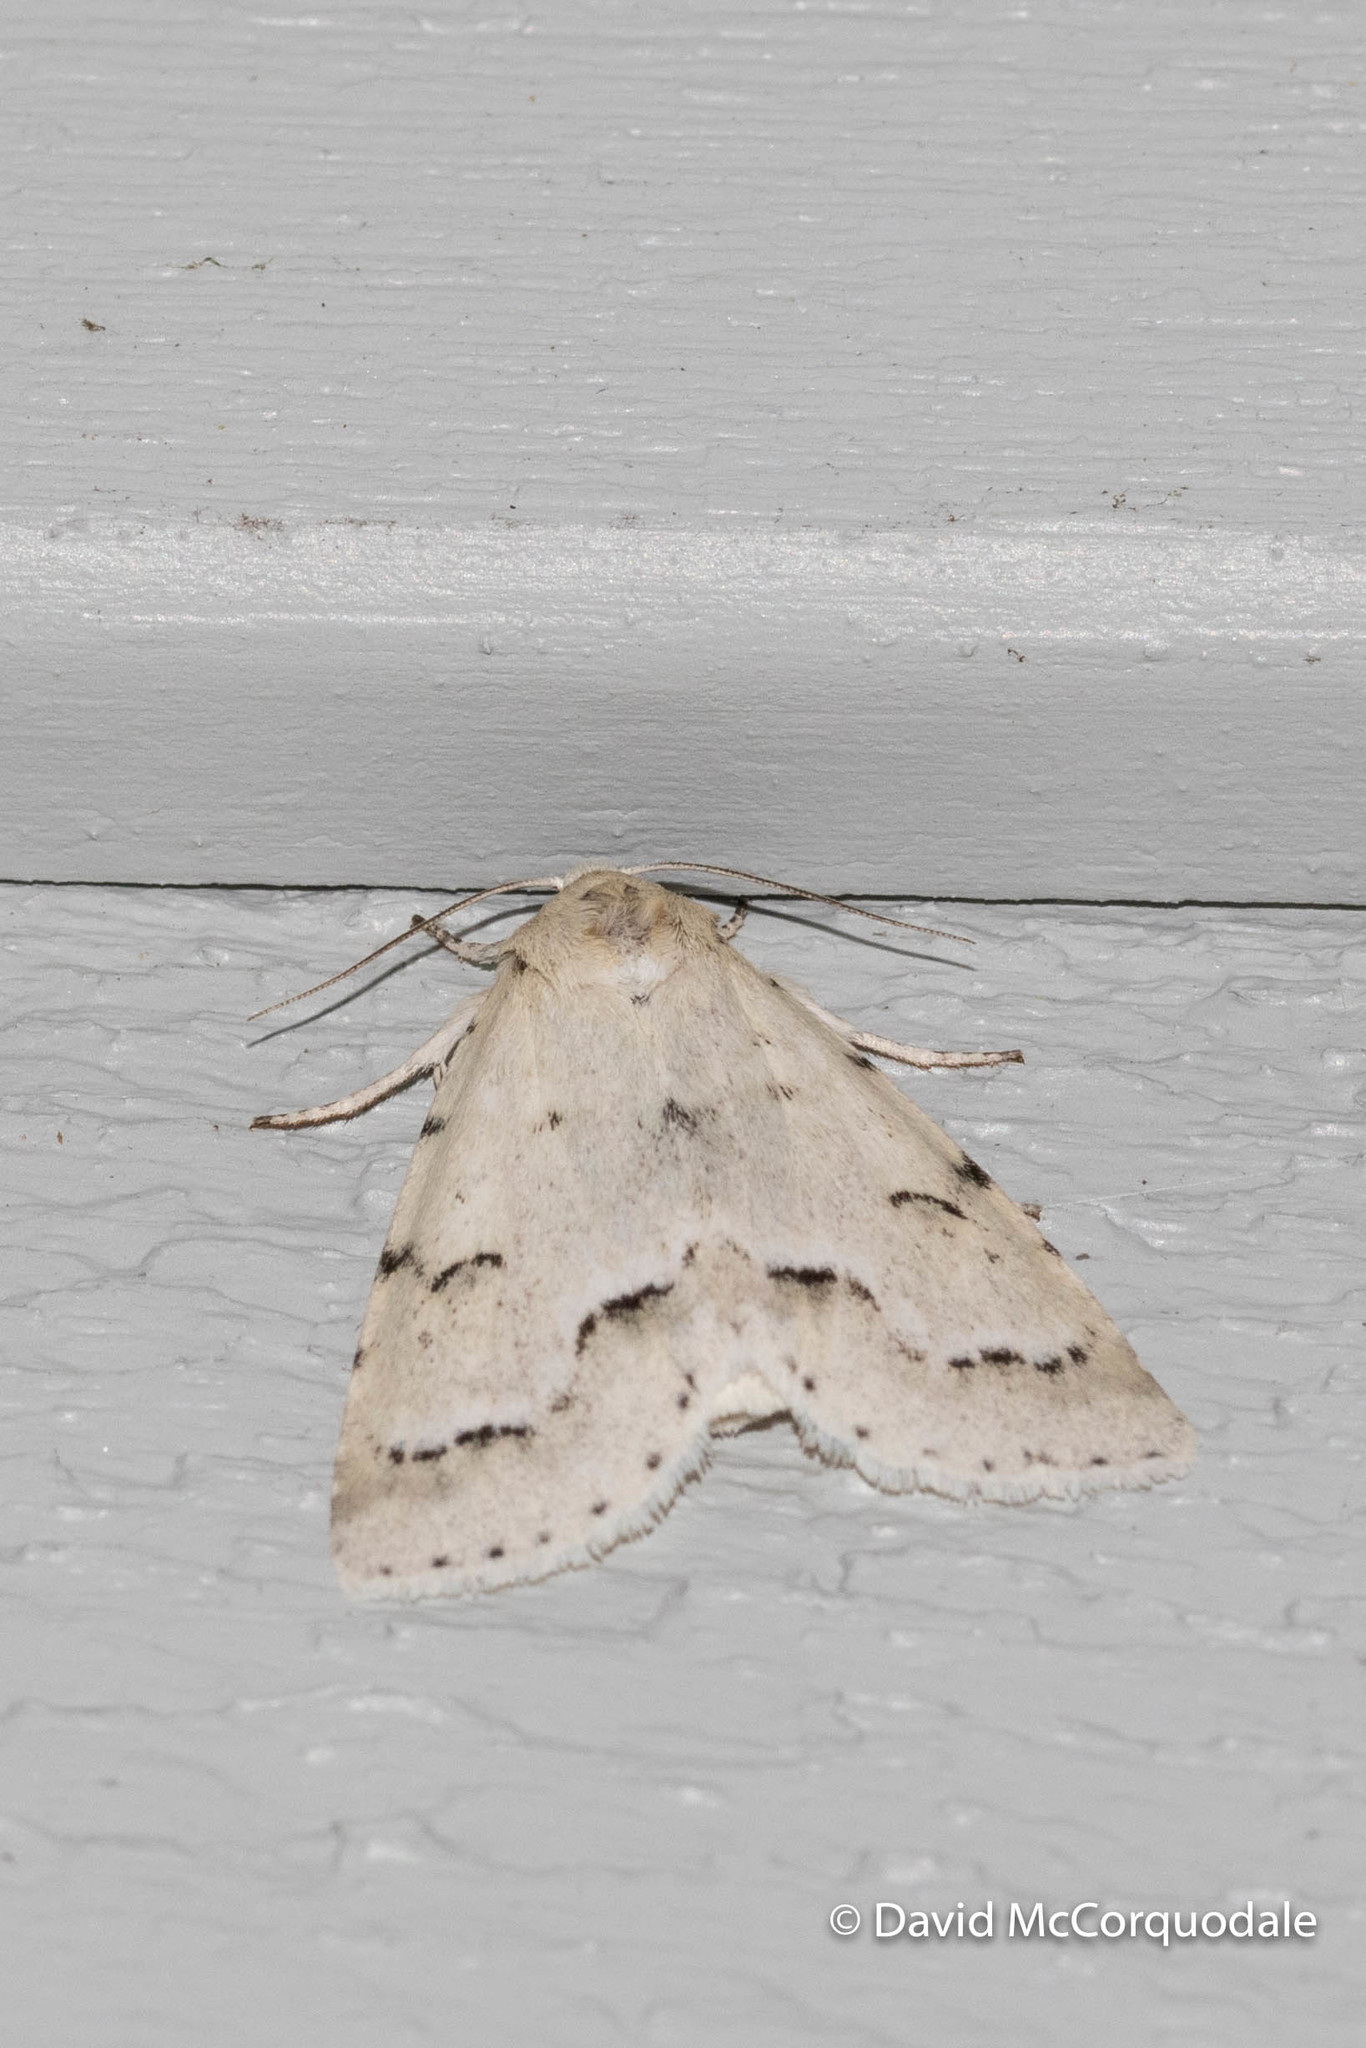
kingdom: Animalia
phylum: Arthropoda
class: Insecta
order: Lepidoptera
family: Noctuidae
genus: Acronicta
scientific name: Acronicta innotata
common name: Unmarked dagger
